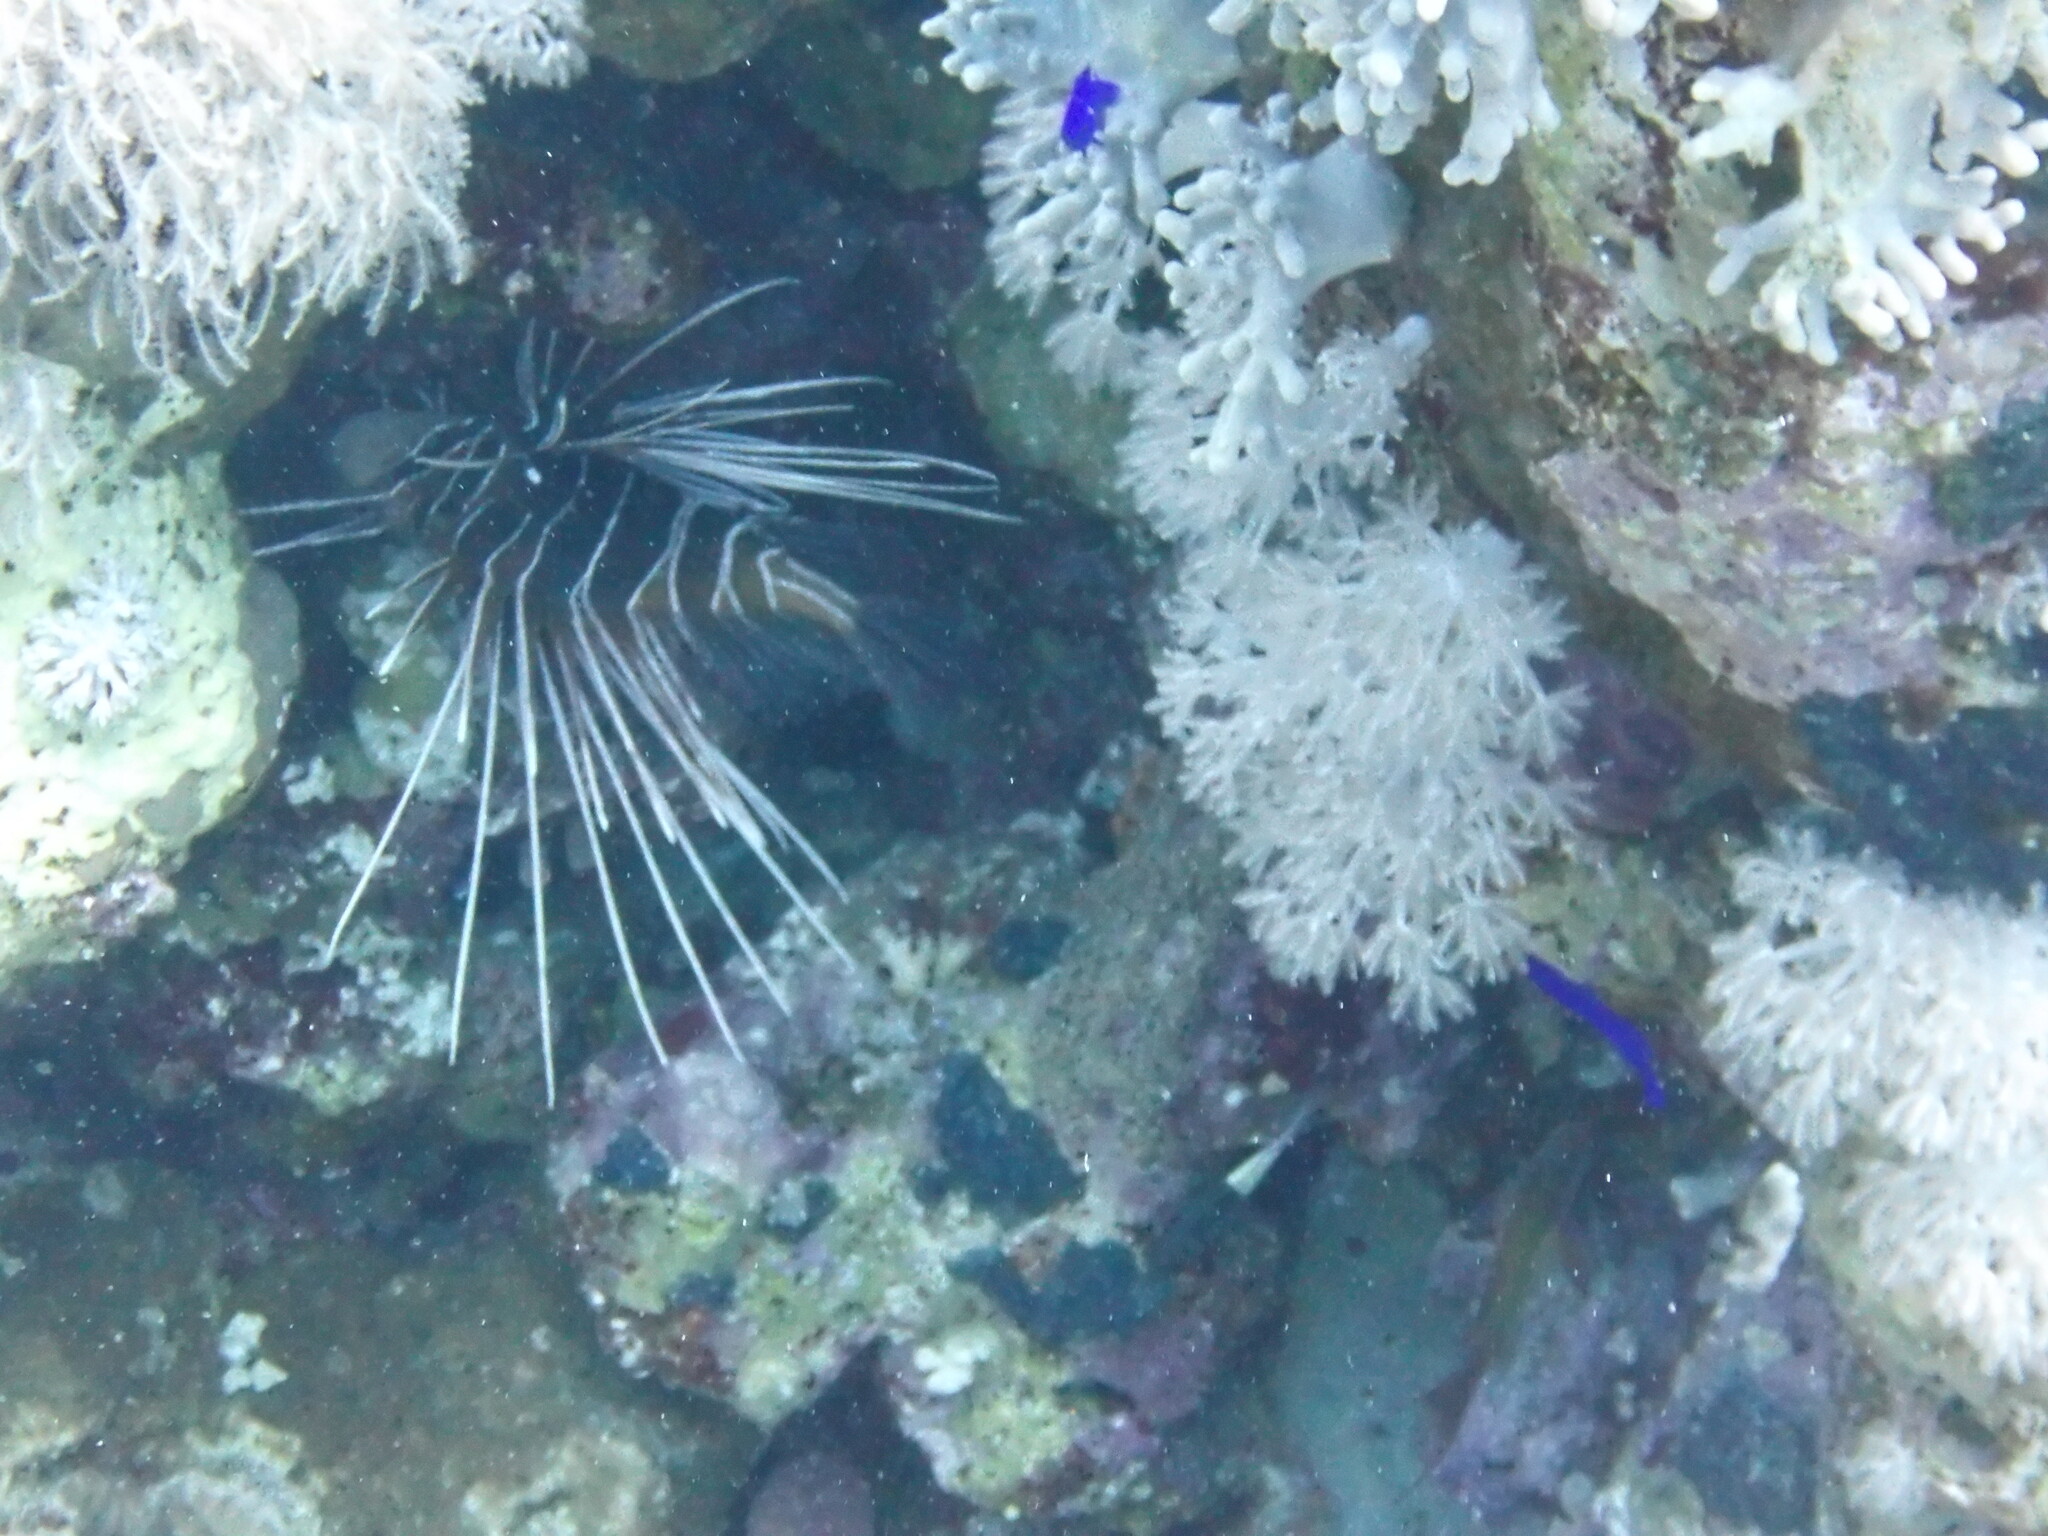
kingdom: Animalia
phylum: Chordata
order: Scorpaeniformes
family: Scorpaenidae
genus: Pterois
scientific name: Pterois cincta
